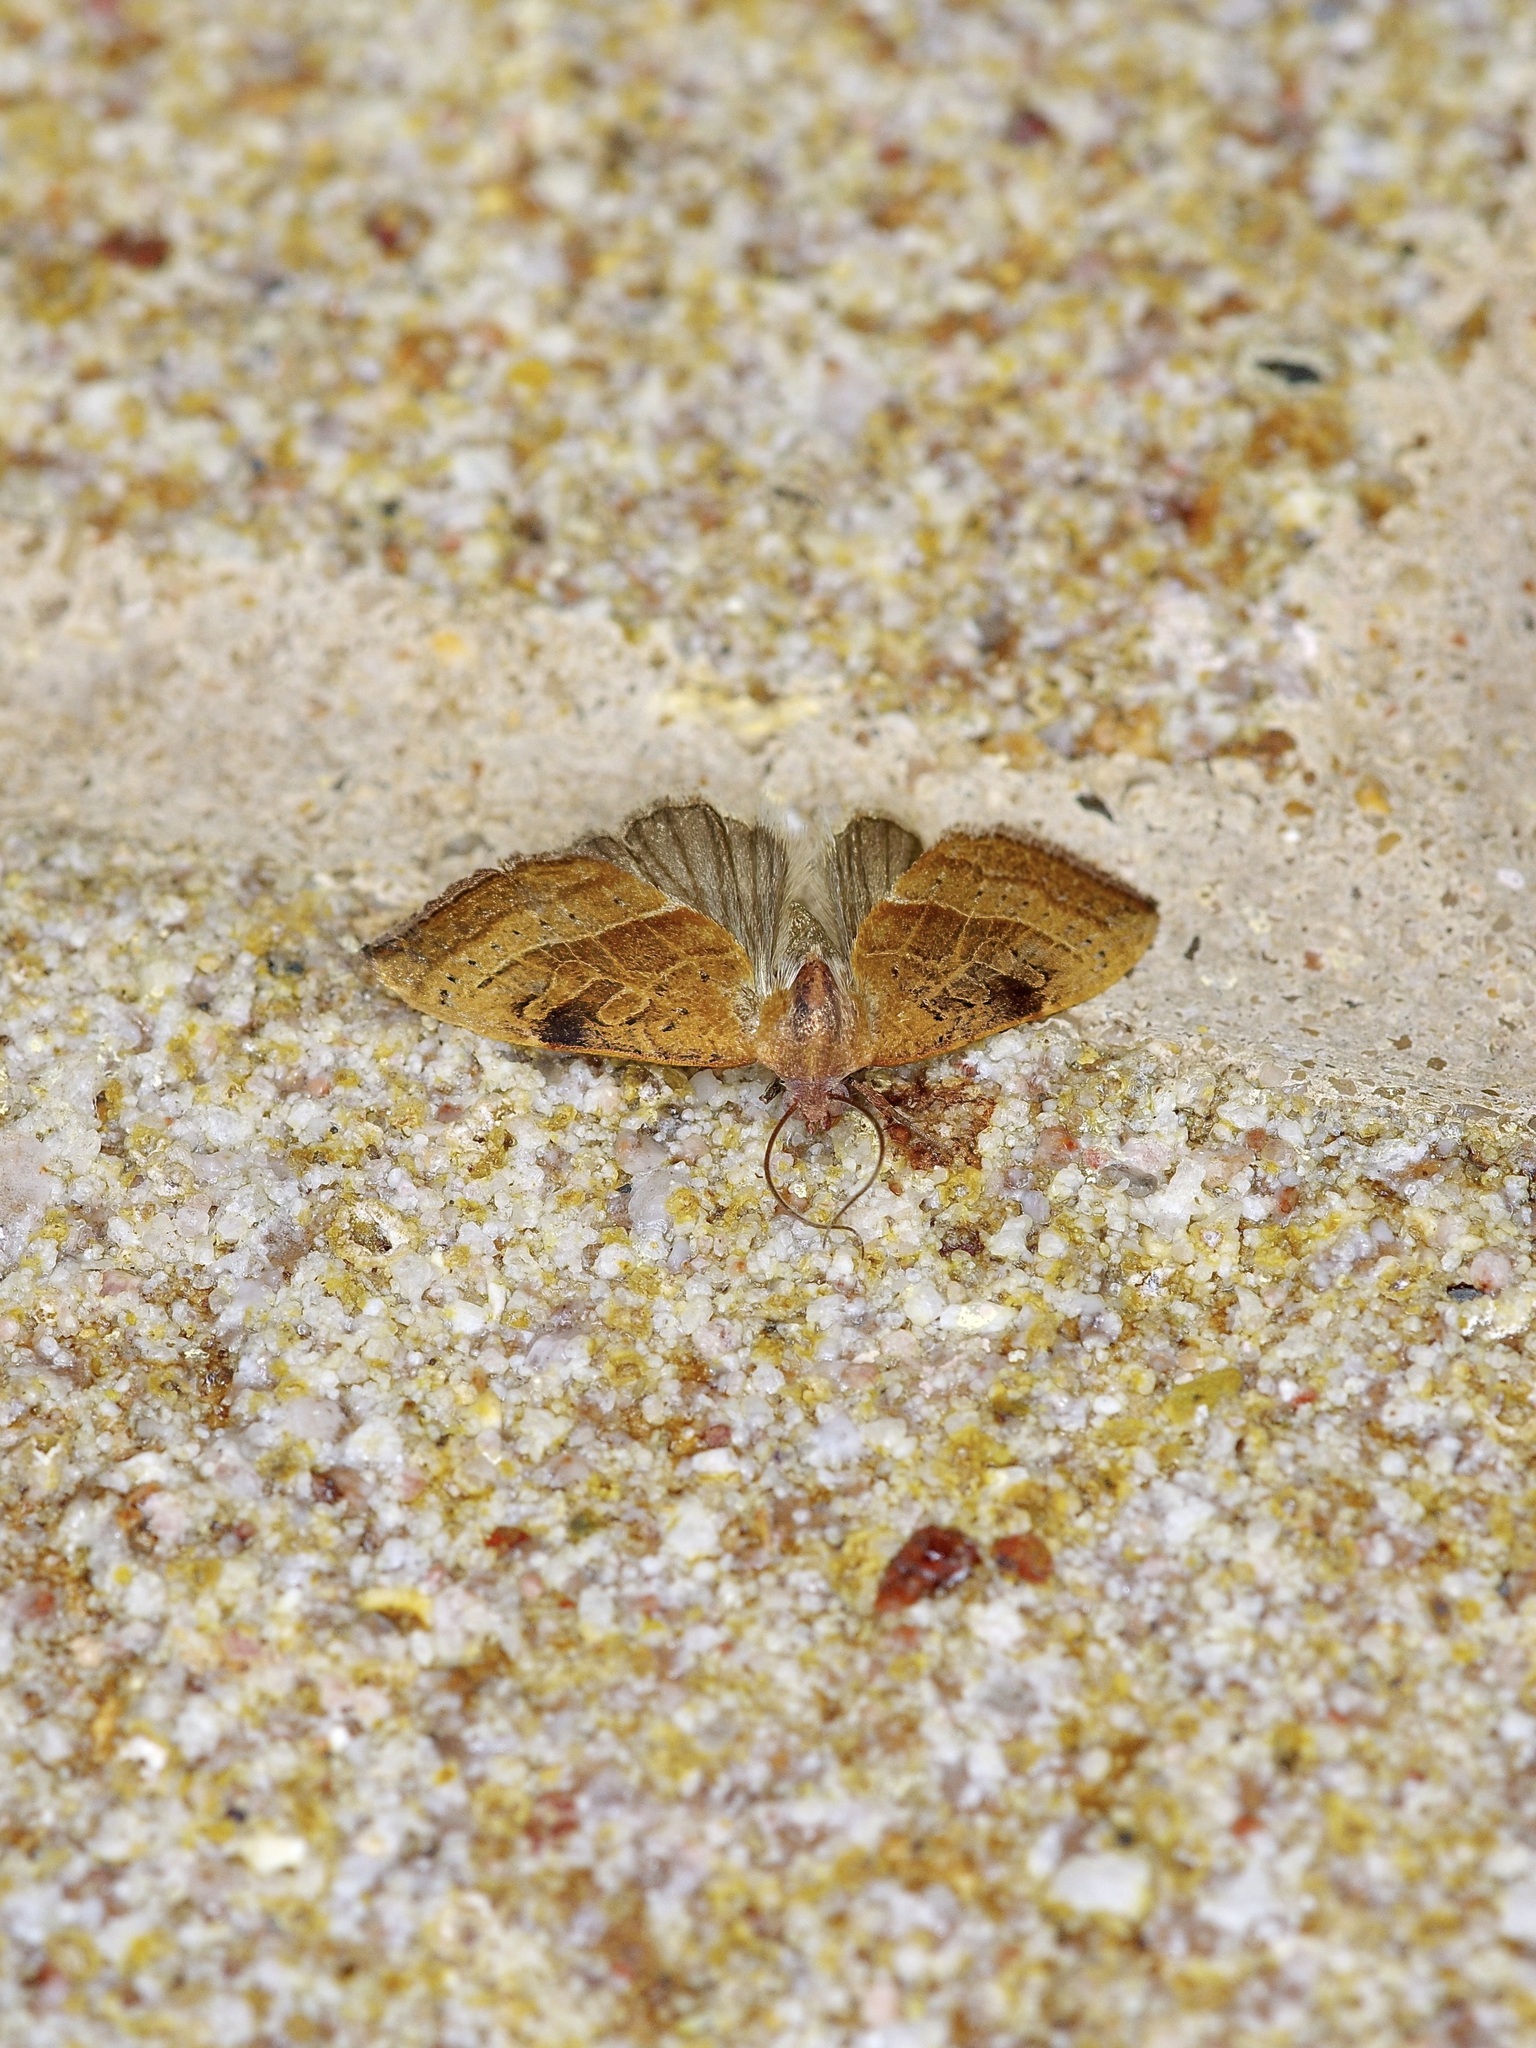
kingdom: Animalia
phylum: Arthropoda
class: Insecta
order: Lepidoptera
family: Noctuidae
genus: Galgula
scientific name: Galgula partita
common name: Wedgeling
